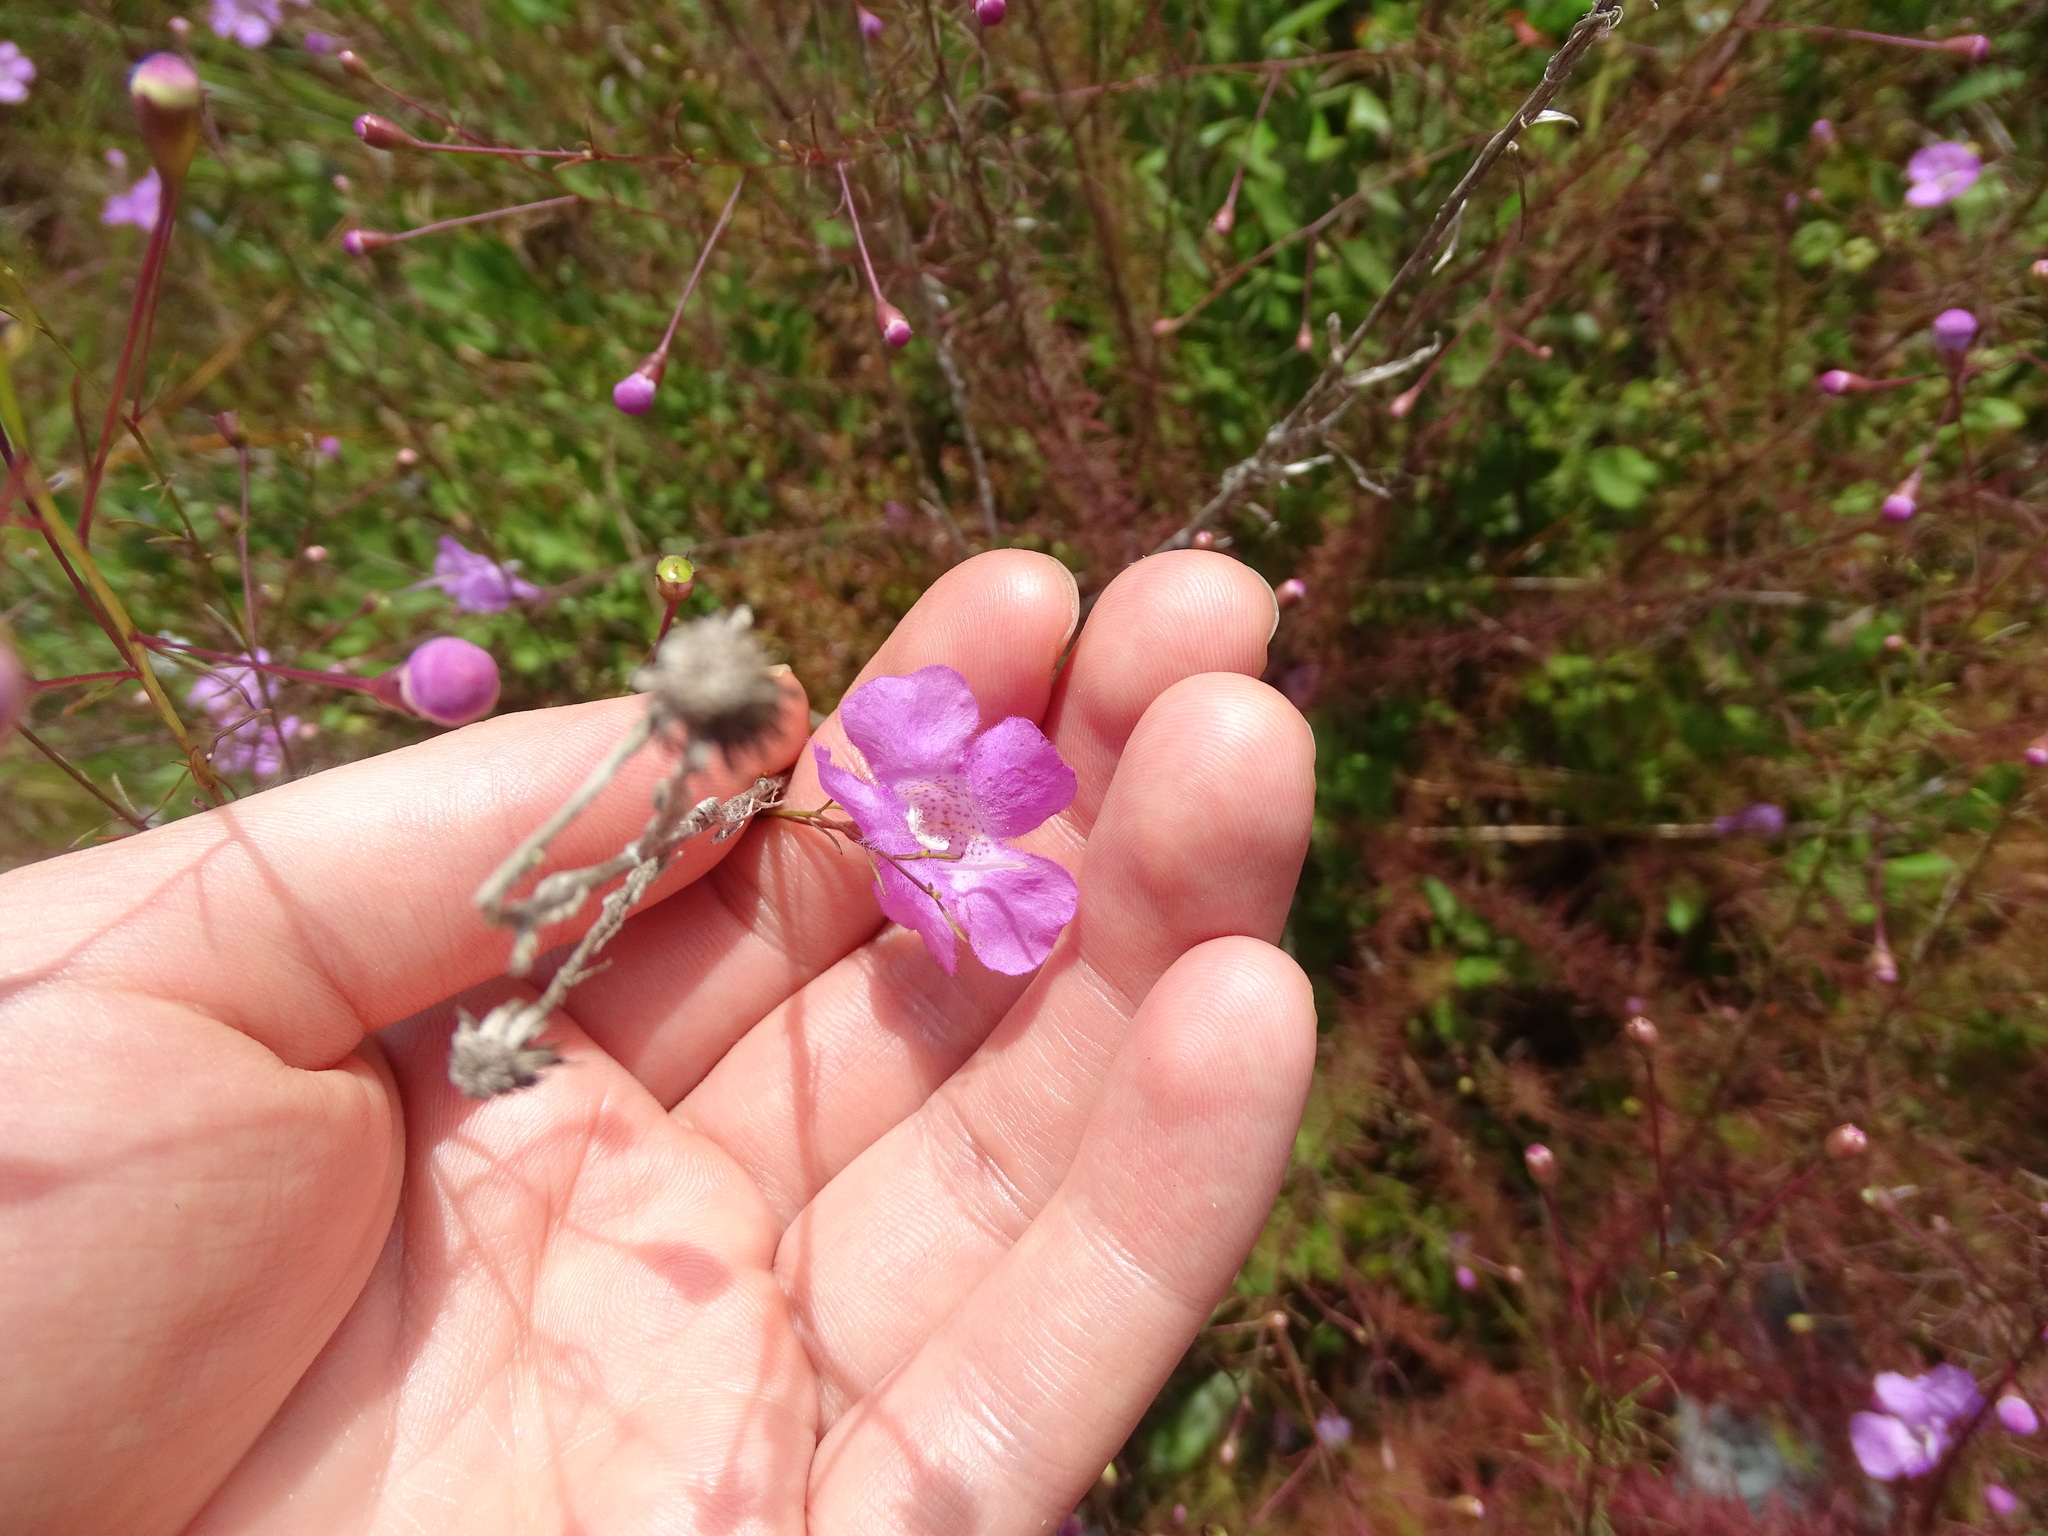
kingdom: Plantae
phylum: Tracheophyta
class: Magnoliopsida
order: Lamiales
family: Orobanchaceae
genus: Agalinis
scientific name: Agalinis filifolia
